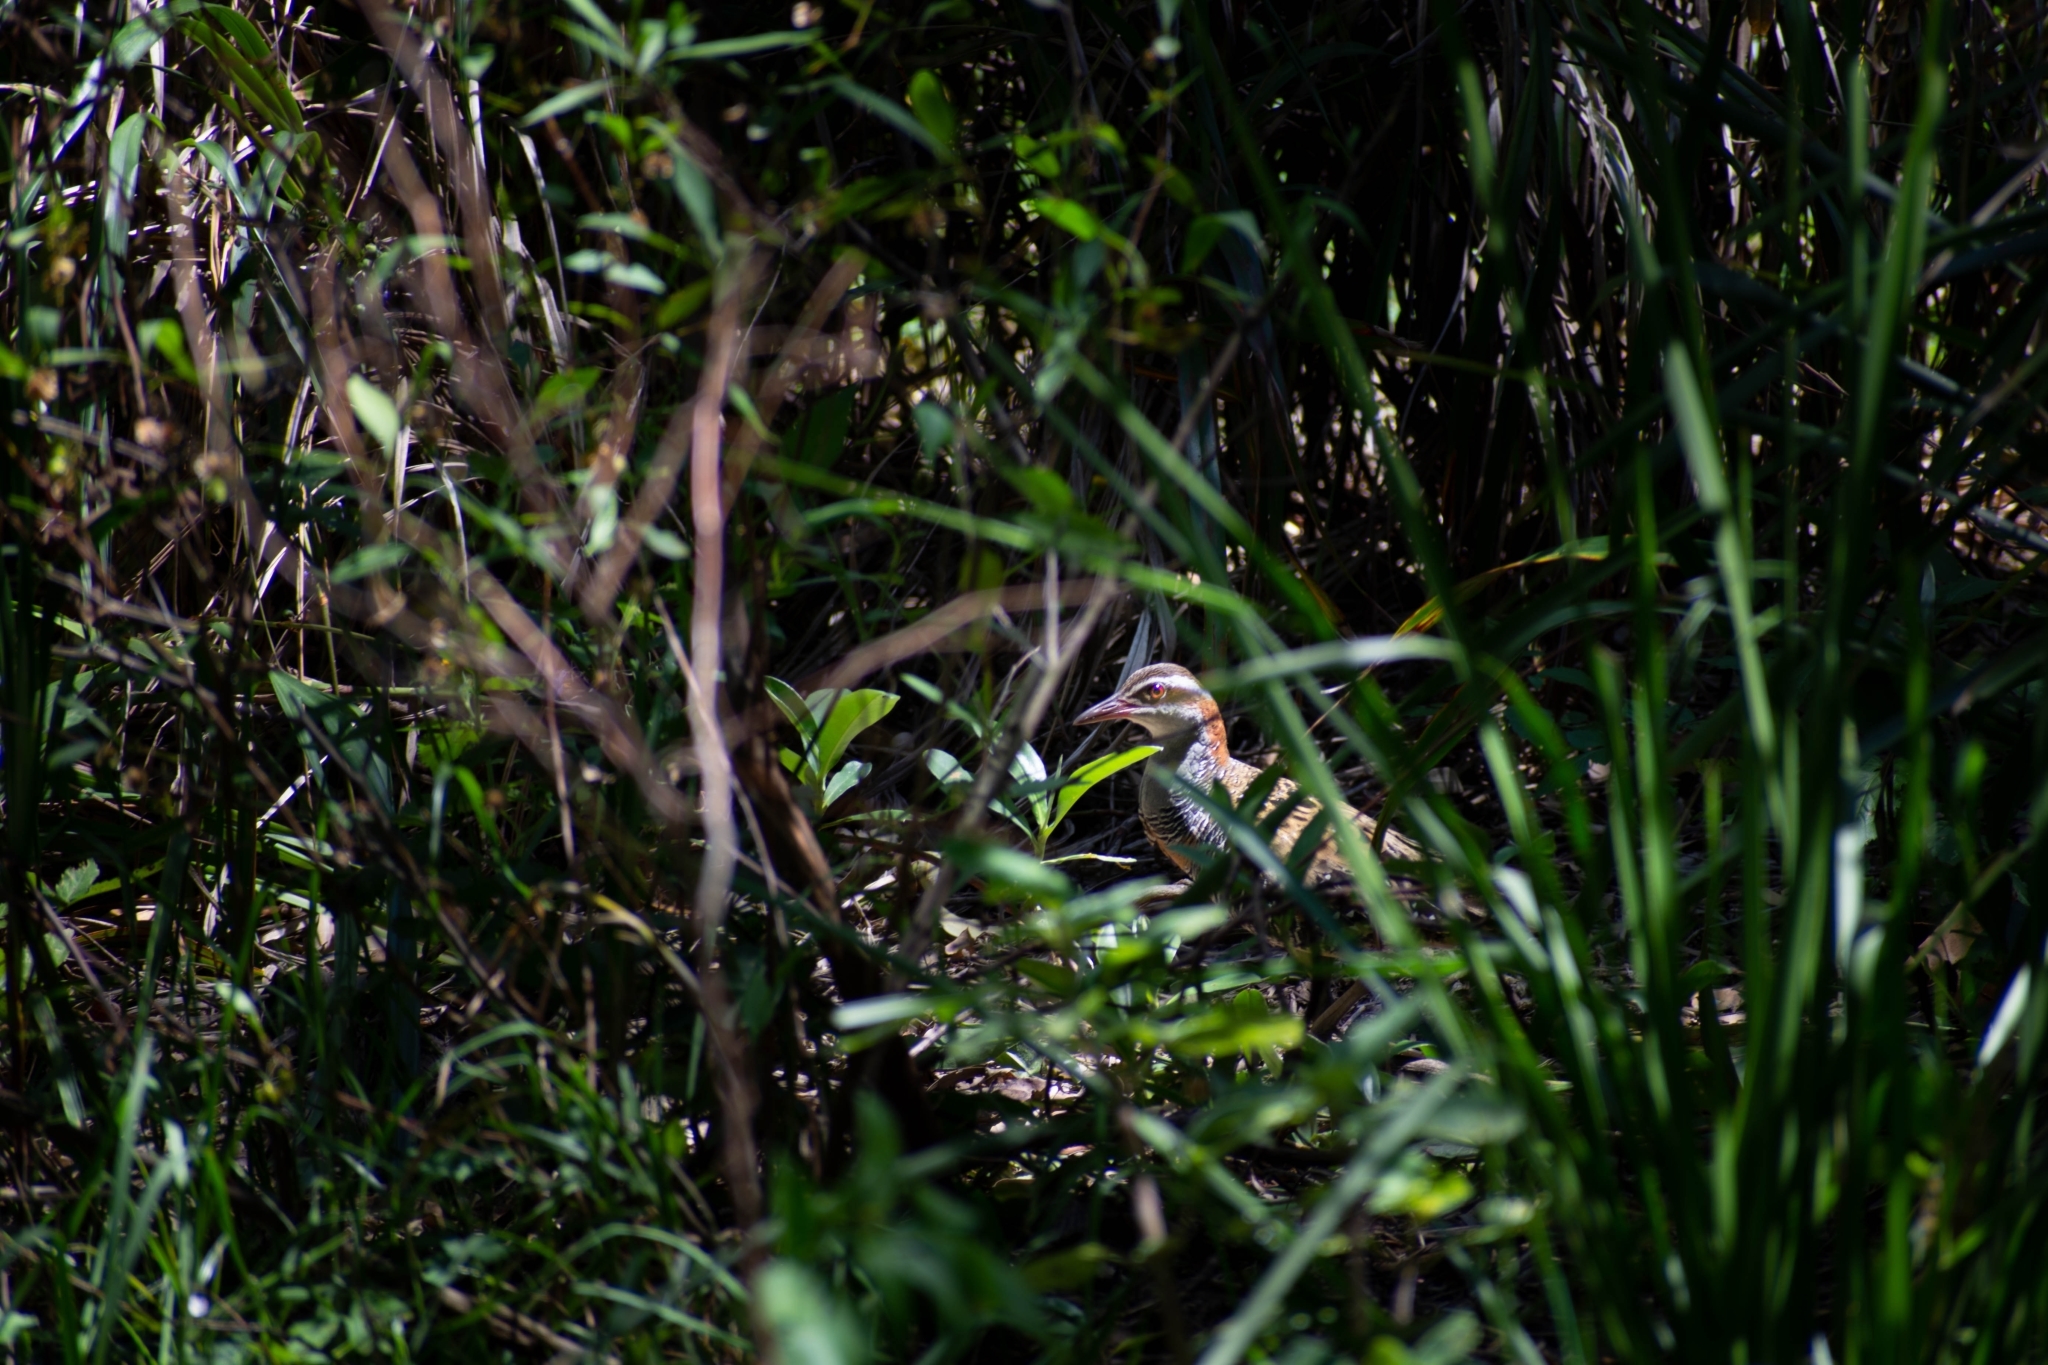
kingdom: Animalia
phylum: Chordata
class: Aves
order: Gruiformes
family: Rallidae
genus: Gallirallus
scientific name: Gallirallus philippensis
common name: Buff-banded rail
